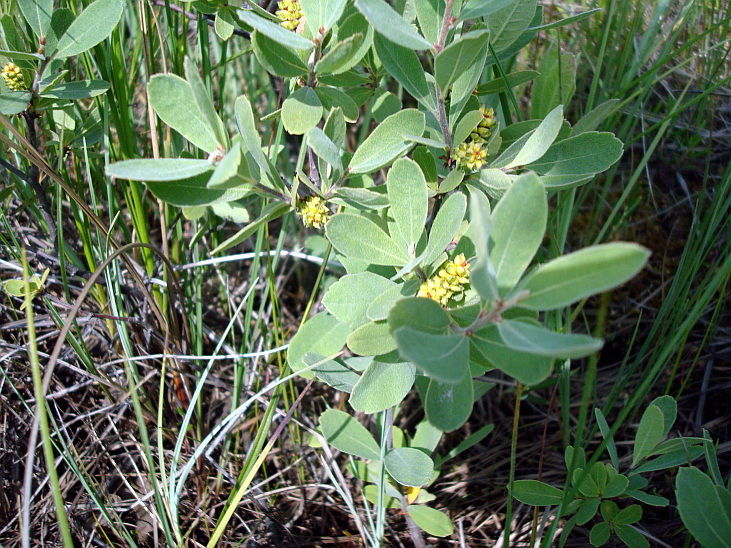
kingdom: Plantae
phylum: Tracheophyta
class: Magnoliopsida
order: Fagales
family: Myricaceae
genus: Myrica
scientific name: Myrica gale
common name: Sweet gale
